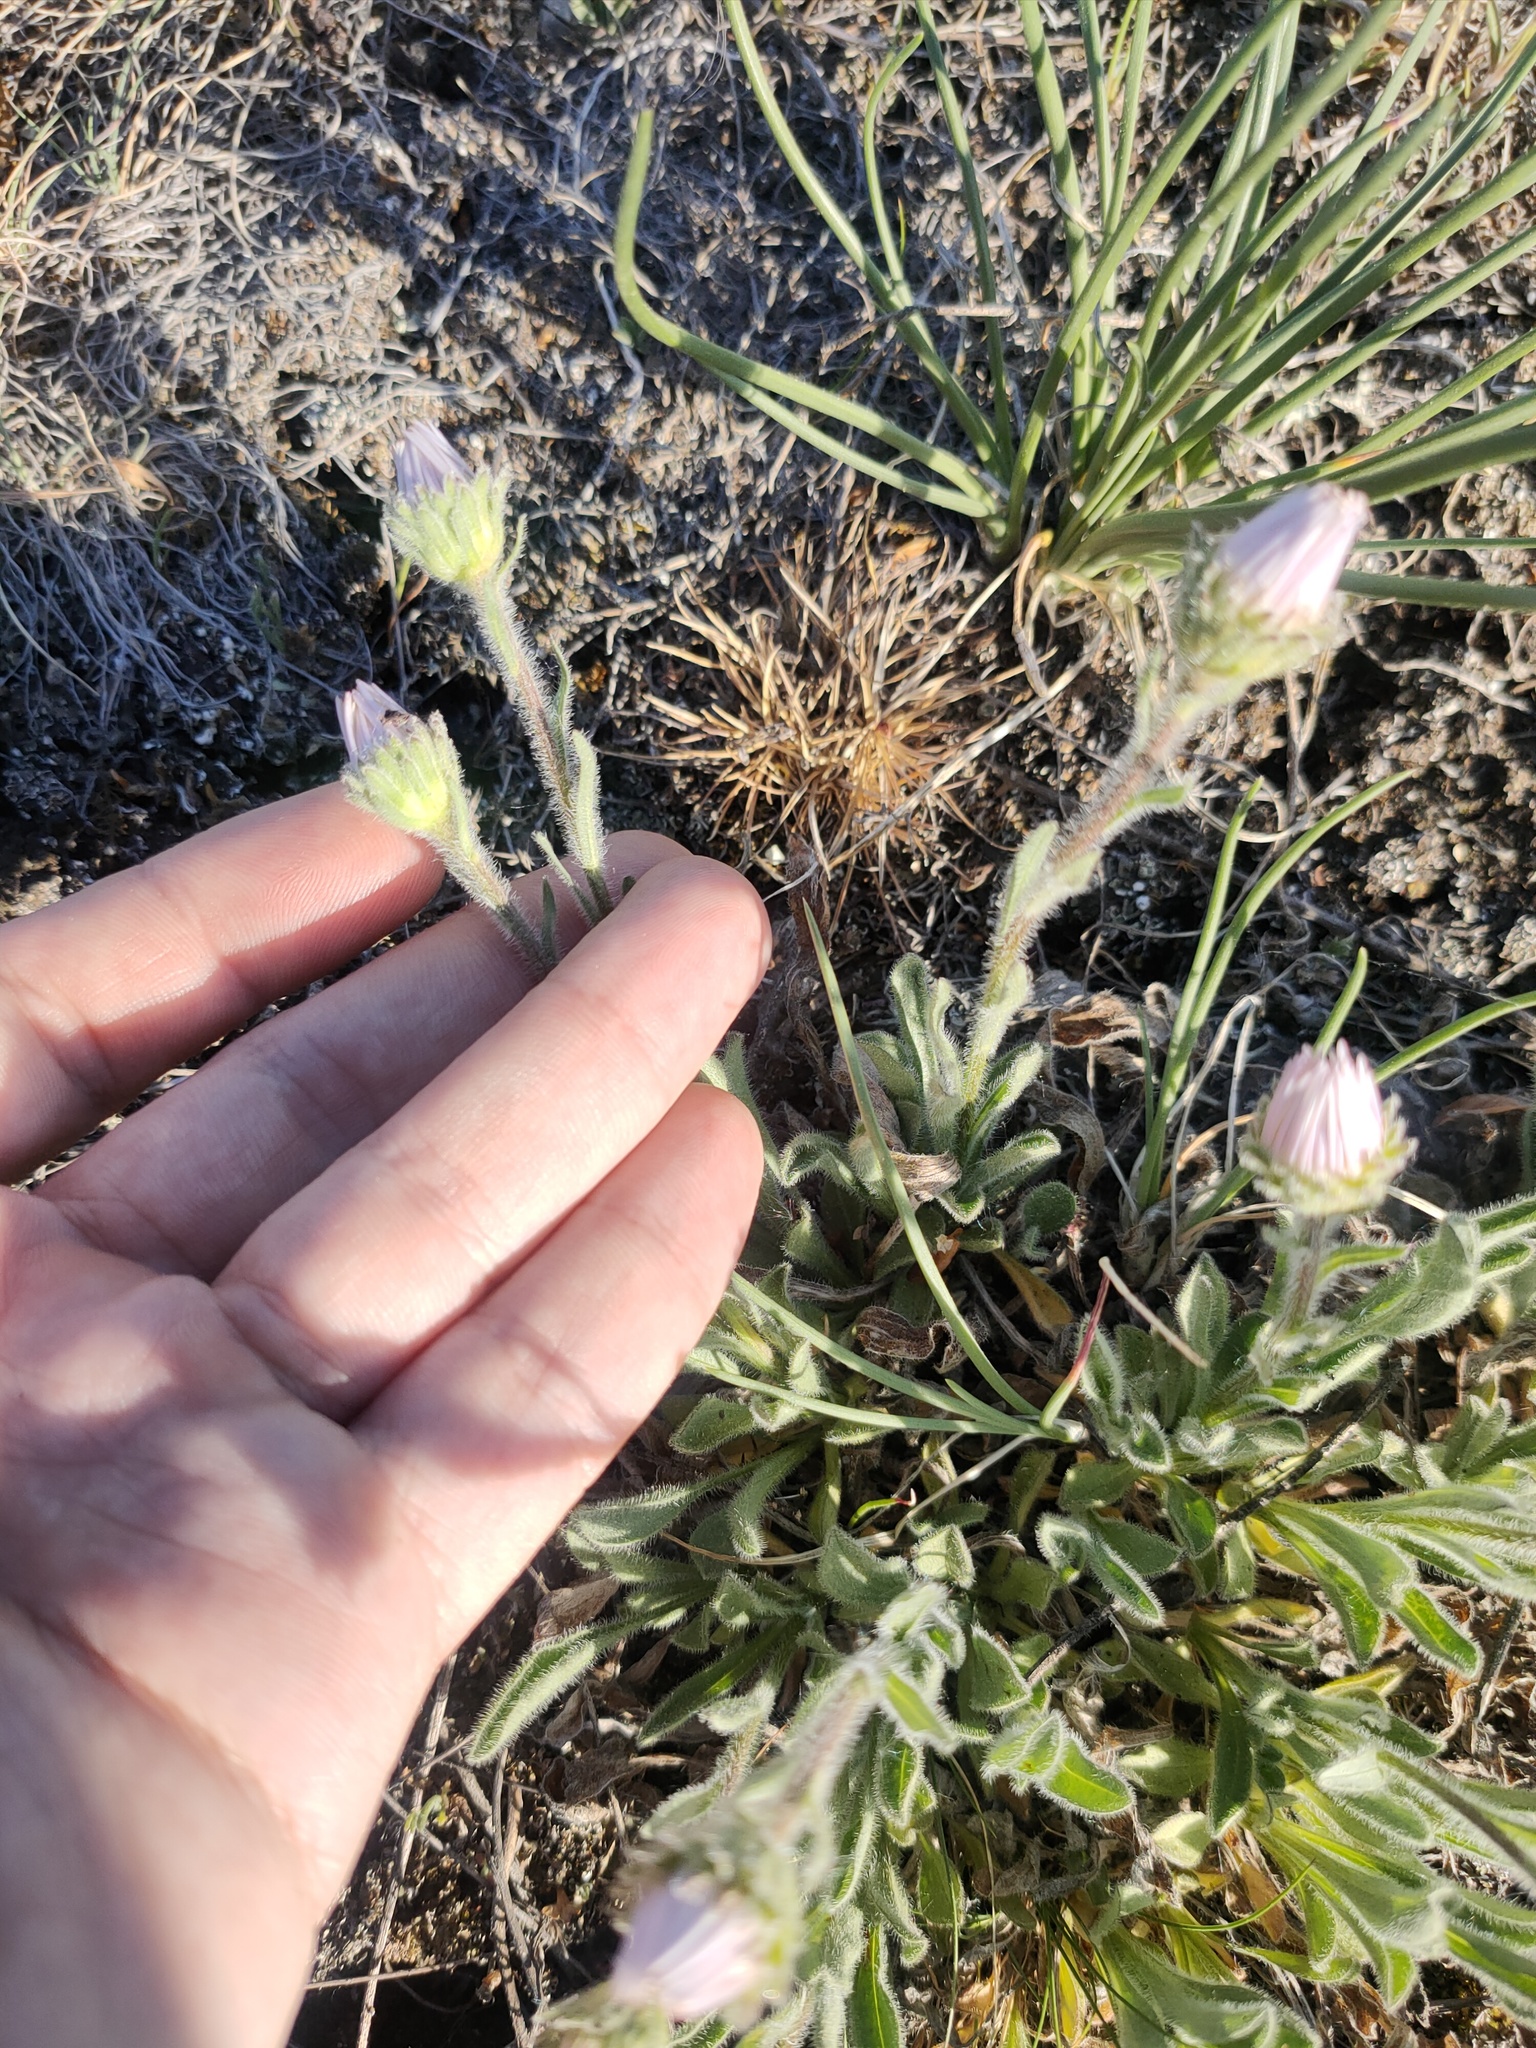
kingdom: Plantae
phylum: Tracheophyta
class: Magnoliopsida
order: Asterales
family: Asteraceae
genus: Aster
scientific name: Aster alpinus
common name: Alpine aster
